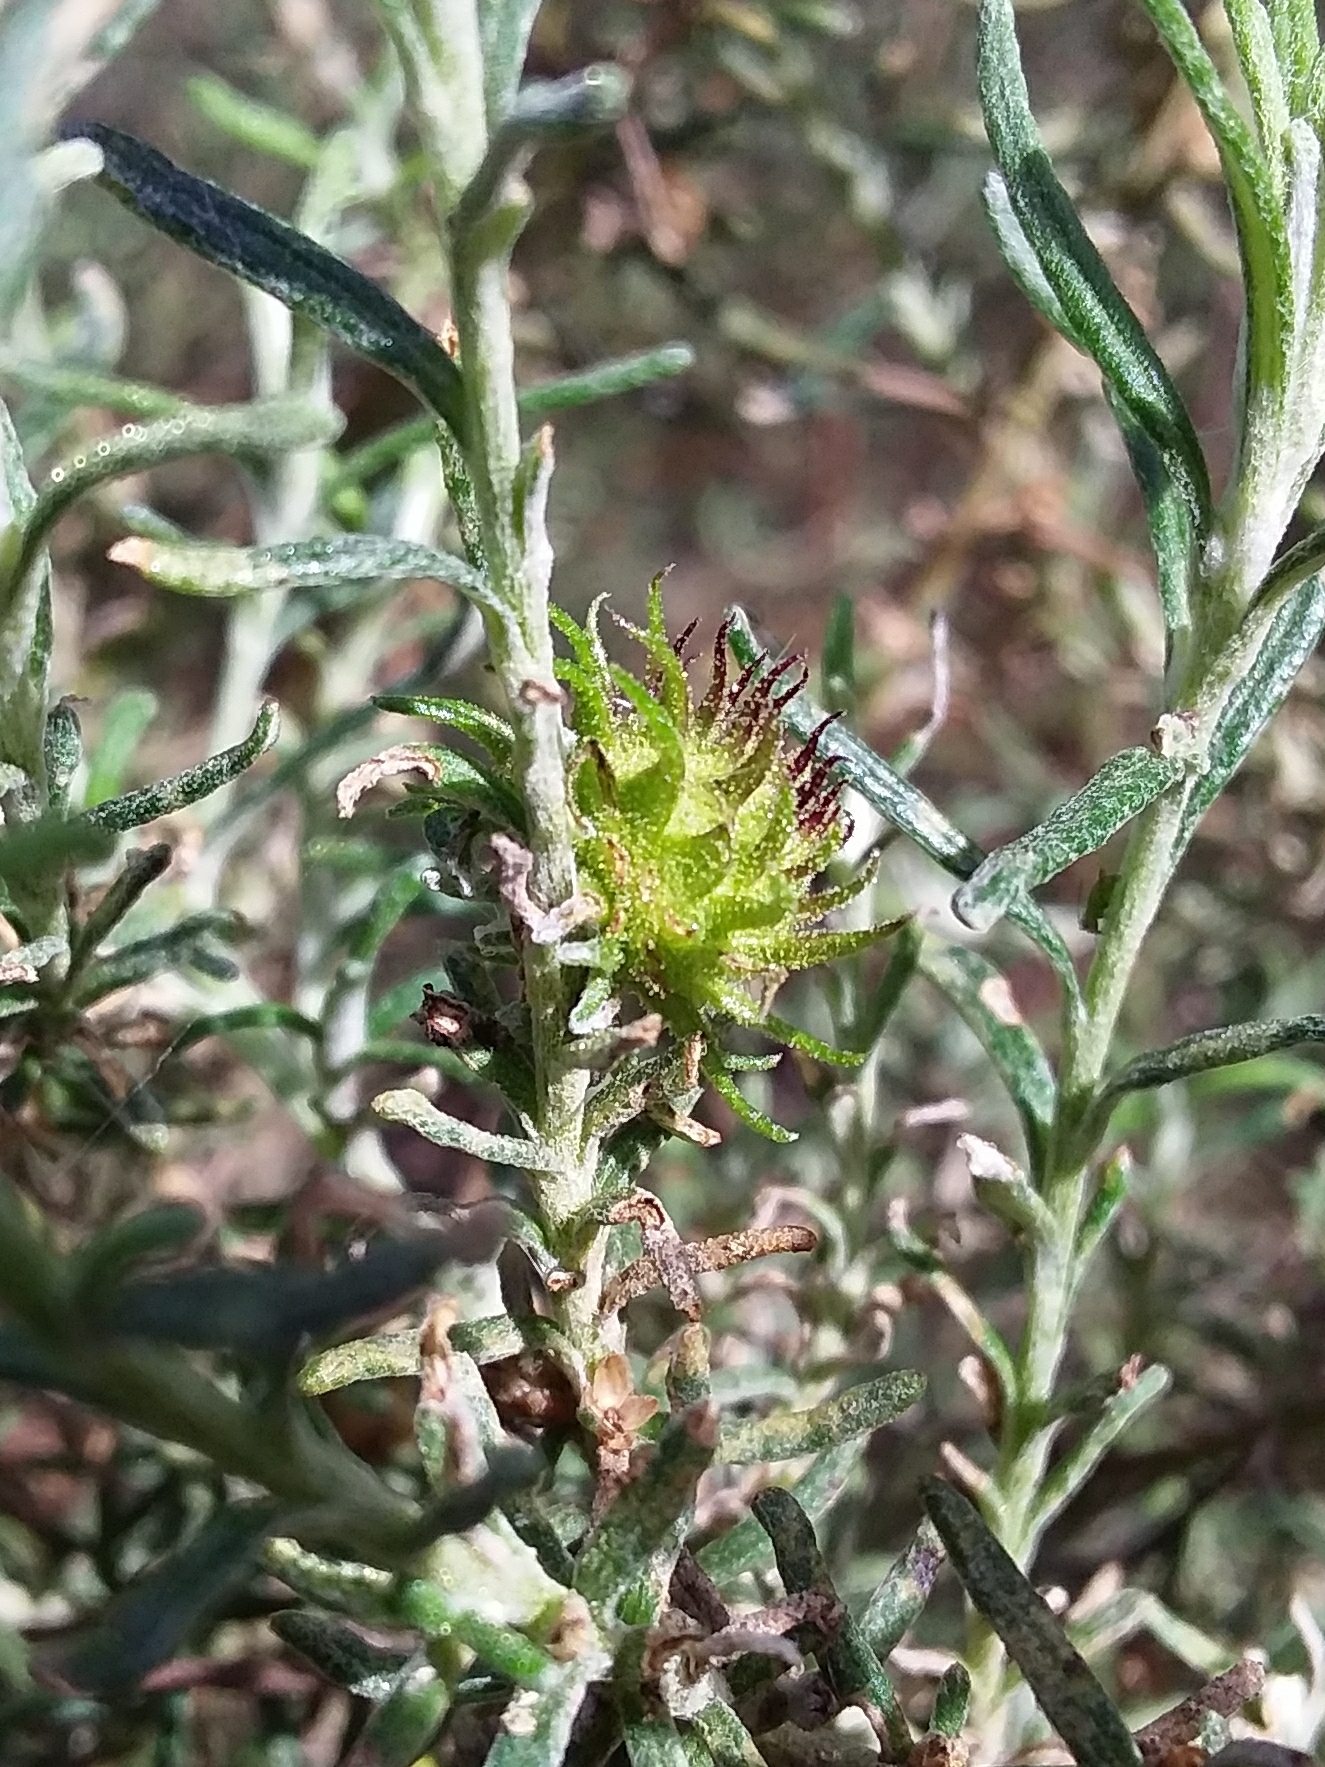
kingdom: Animalia
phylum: Arthropoda
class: Insecta
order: Diptera
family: Cecidomyiidae
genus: Trigonomyia
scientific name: Trigonomyia ananas
